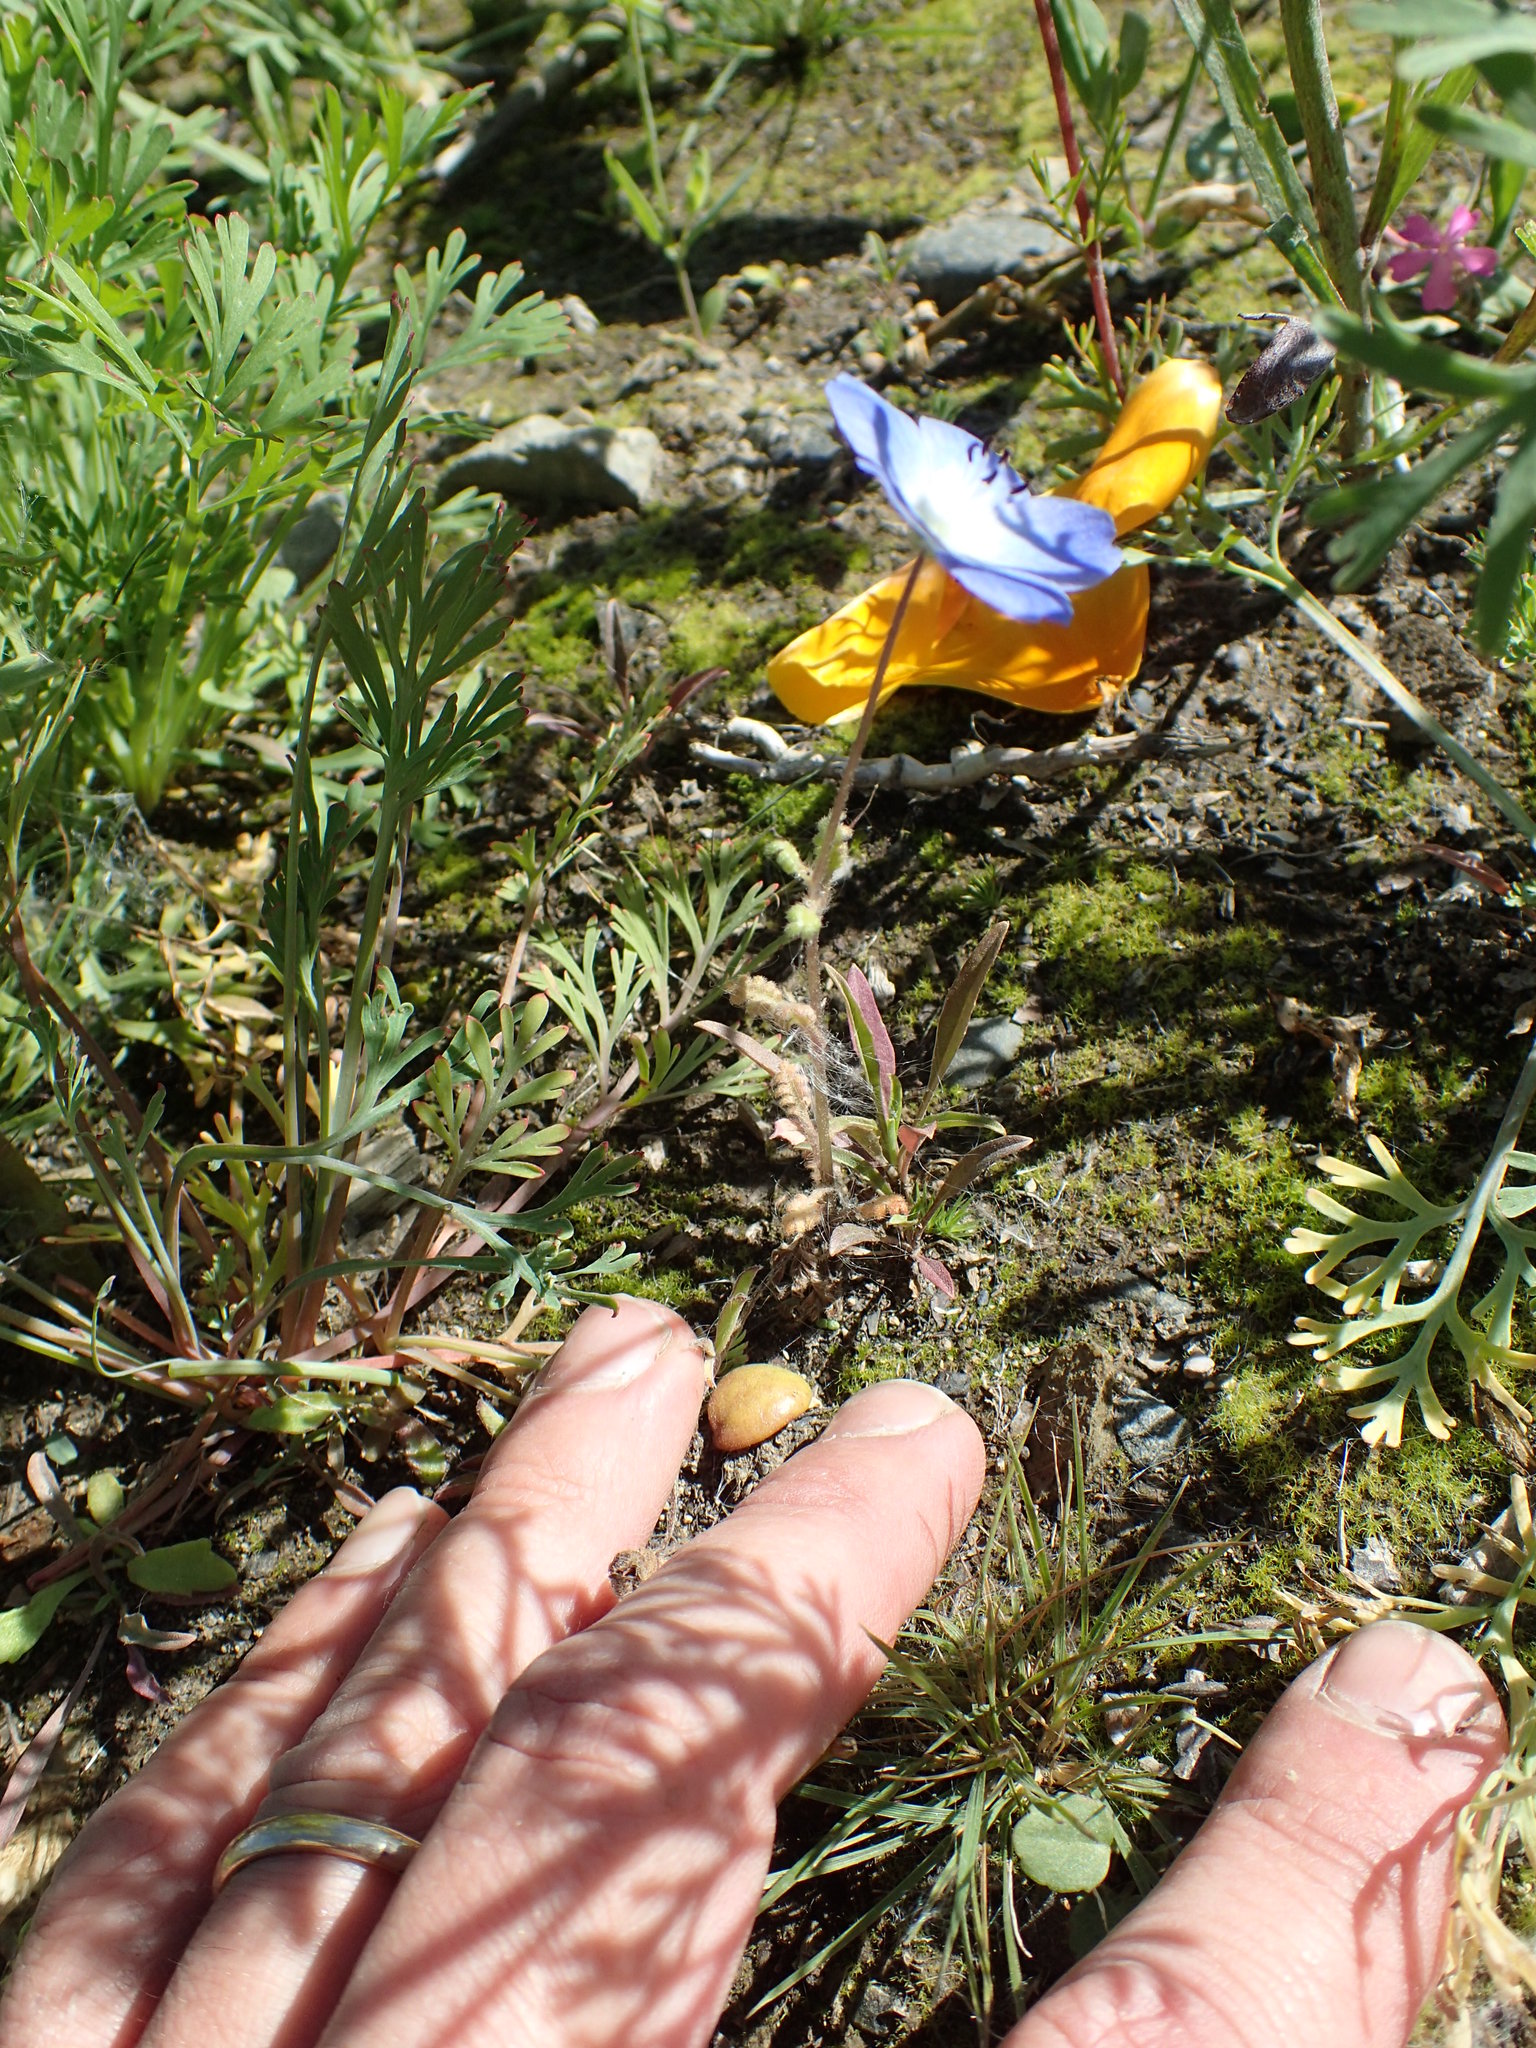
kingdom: Plantae
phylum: Tracheophyta
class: Magnoliopsida
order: Boraginales
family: Hydrophyllaceae
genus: Nemophila
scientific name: Nemophila menziesii
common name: Baby's-blue-eyes
